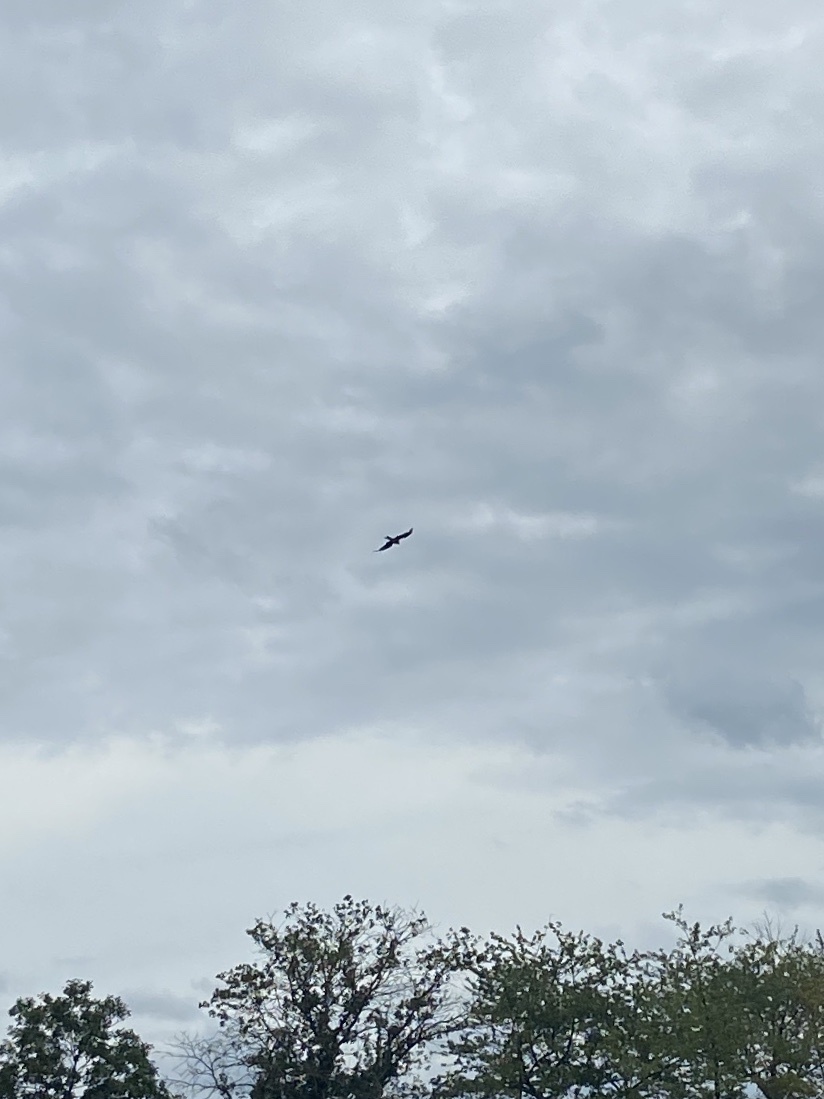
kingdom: Animalia
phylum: Chordata
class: Aves
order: Accipitriformes
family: Accipitridae
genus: Milvus
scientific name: Milvus milvus
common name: Red kite
